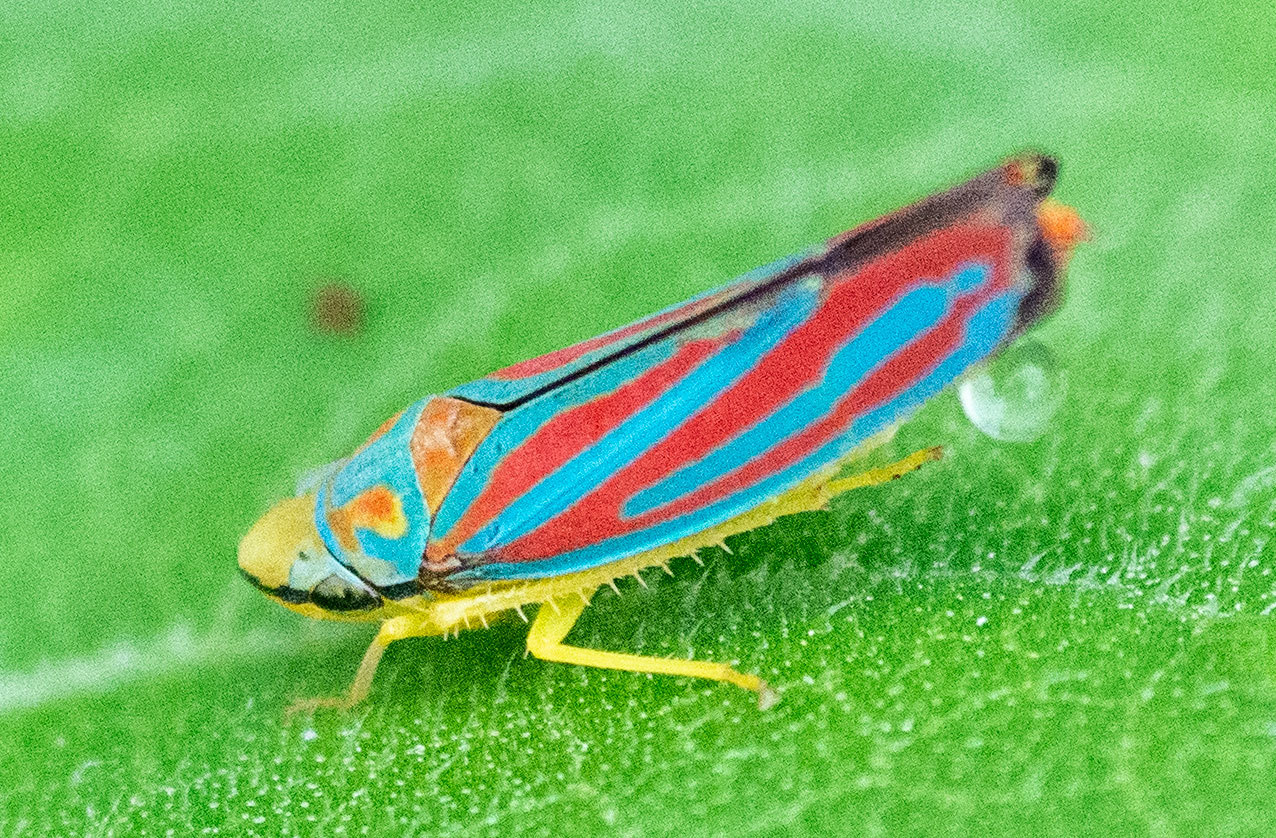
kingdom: Animalia
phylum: Arthropoda
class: Insecta
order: Hemiptera
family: Cicadellidae
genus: Graphocephala
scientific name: Graphocephala coccinea
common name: Candy-striped leafhopper
